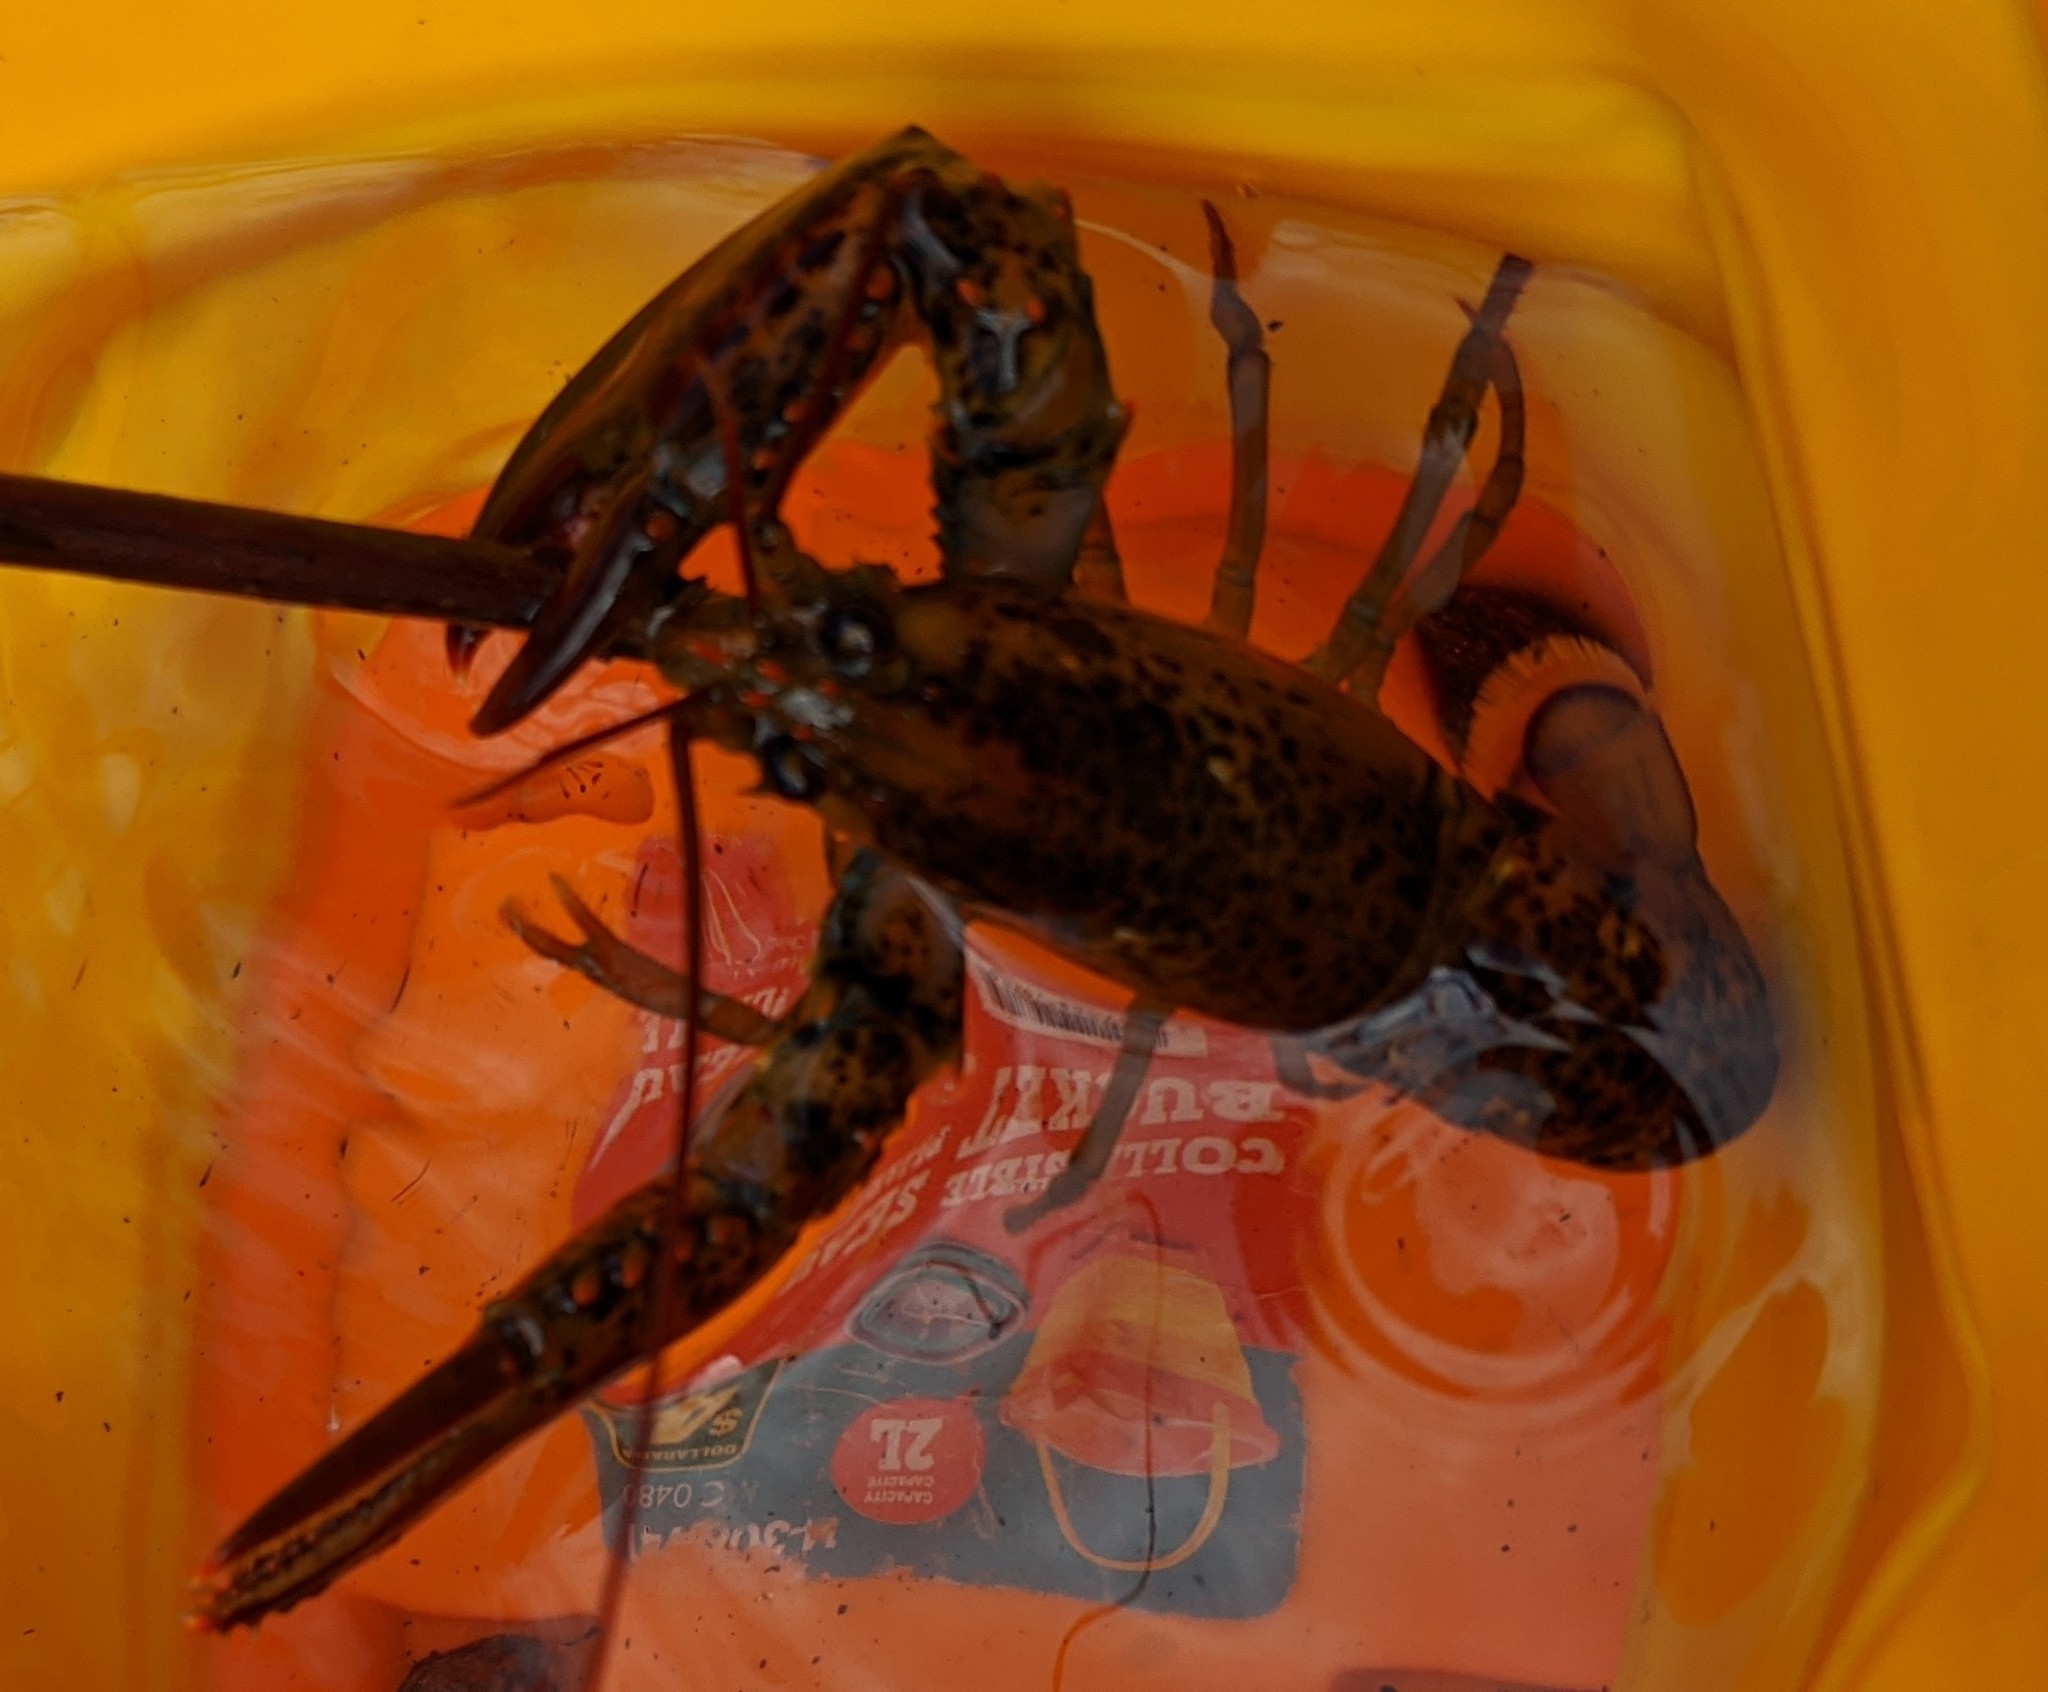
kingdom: Animalia
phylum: Arthropoda
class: Malacostraca
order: Decapoda
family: Nephropidae
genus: Homarus
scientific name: Homarus americanus
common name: American lobster
